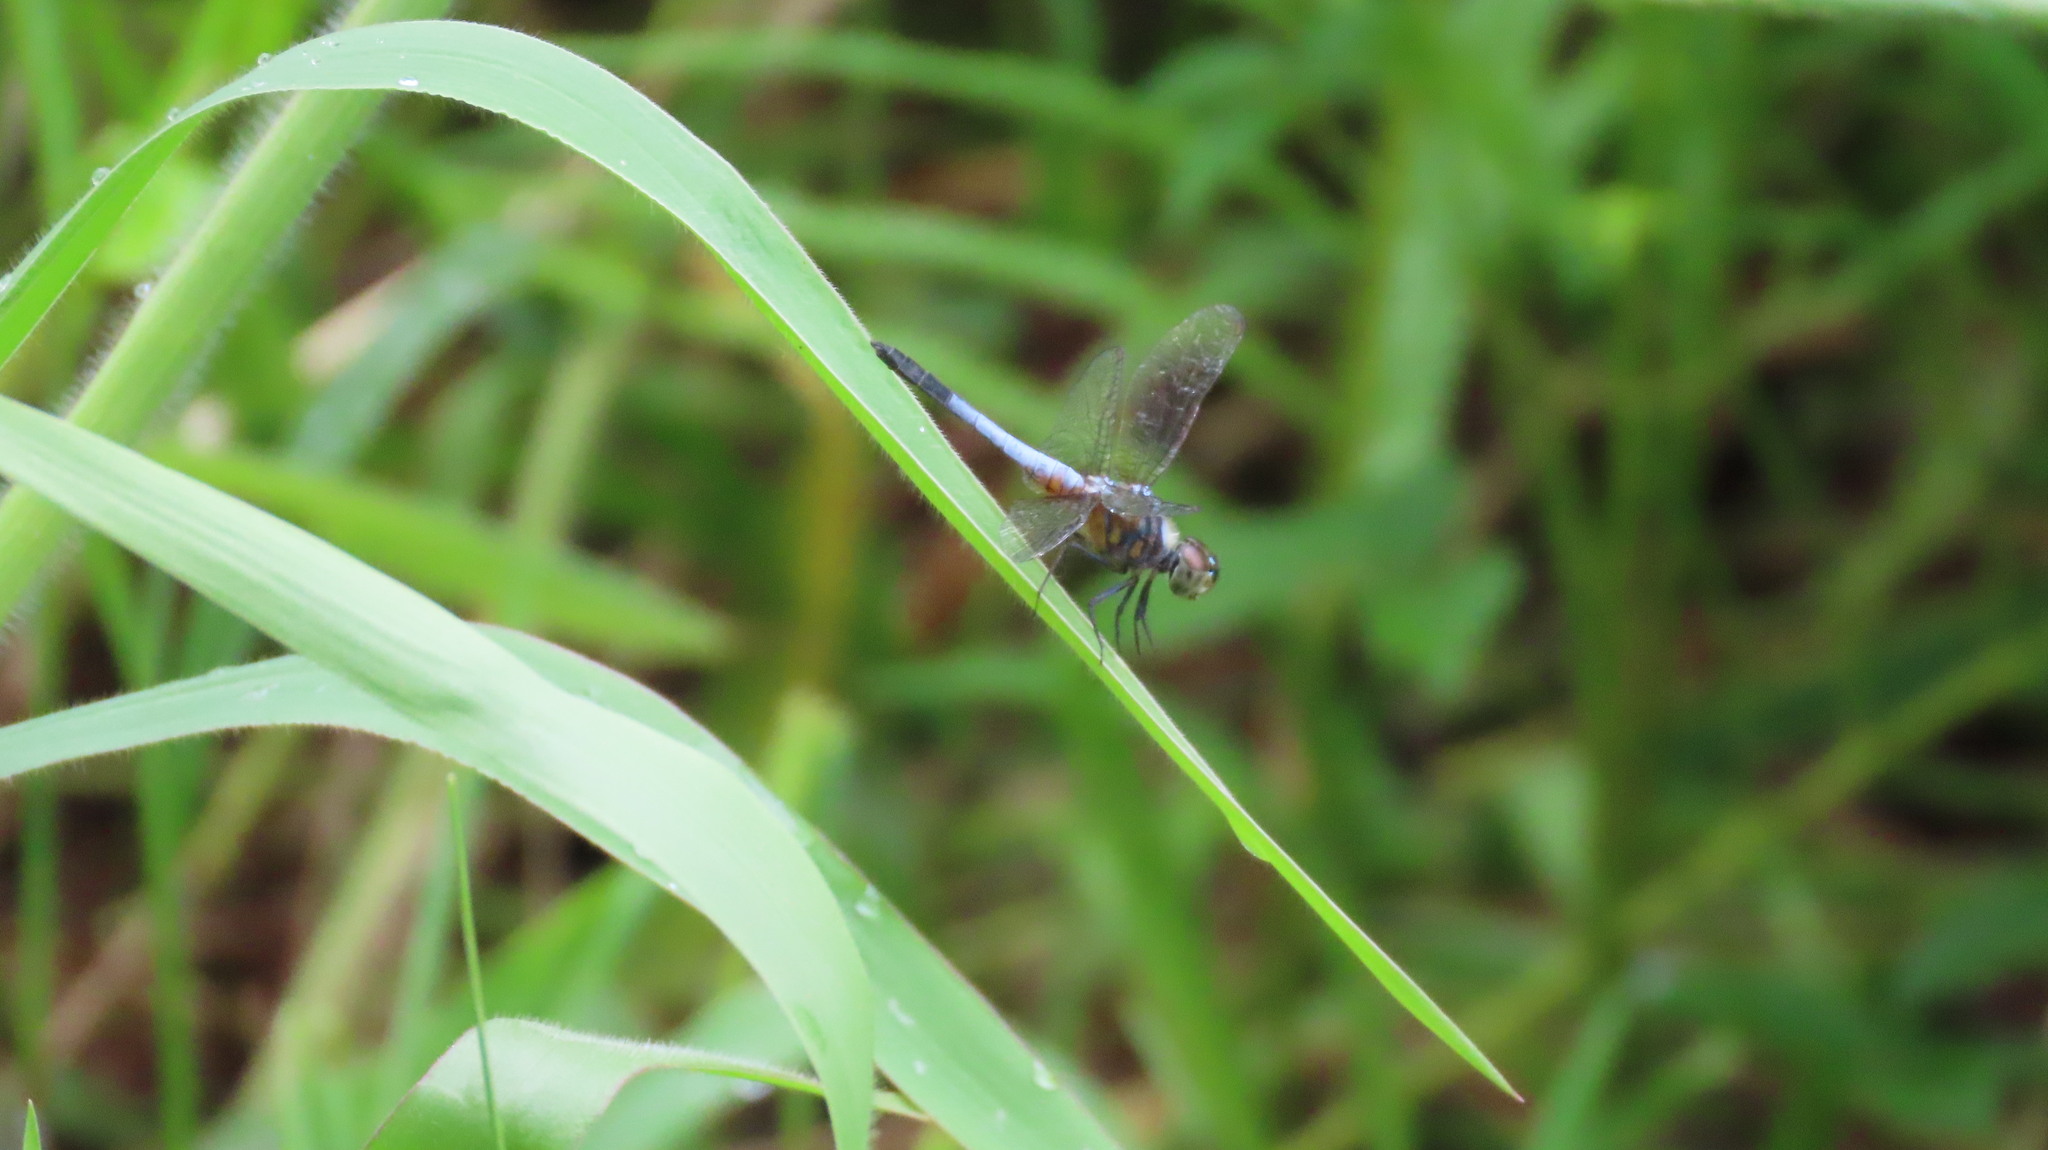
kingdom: Animalia
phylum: Arthropoda
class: Insecta
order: Odonata
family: Libellulidae
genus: Brachydiplax
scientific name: Brachydiplax chalybea
